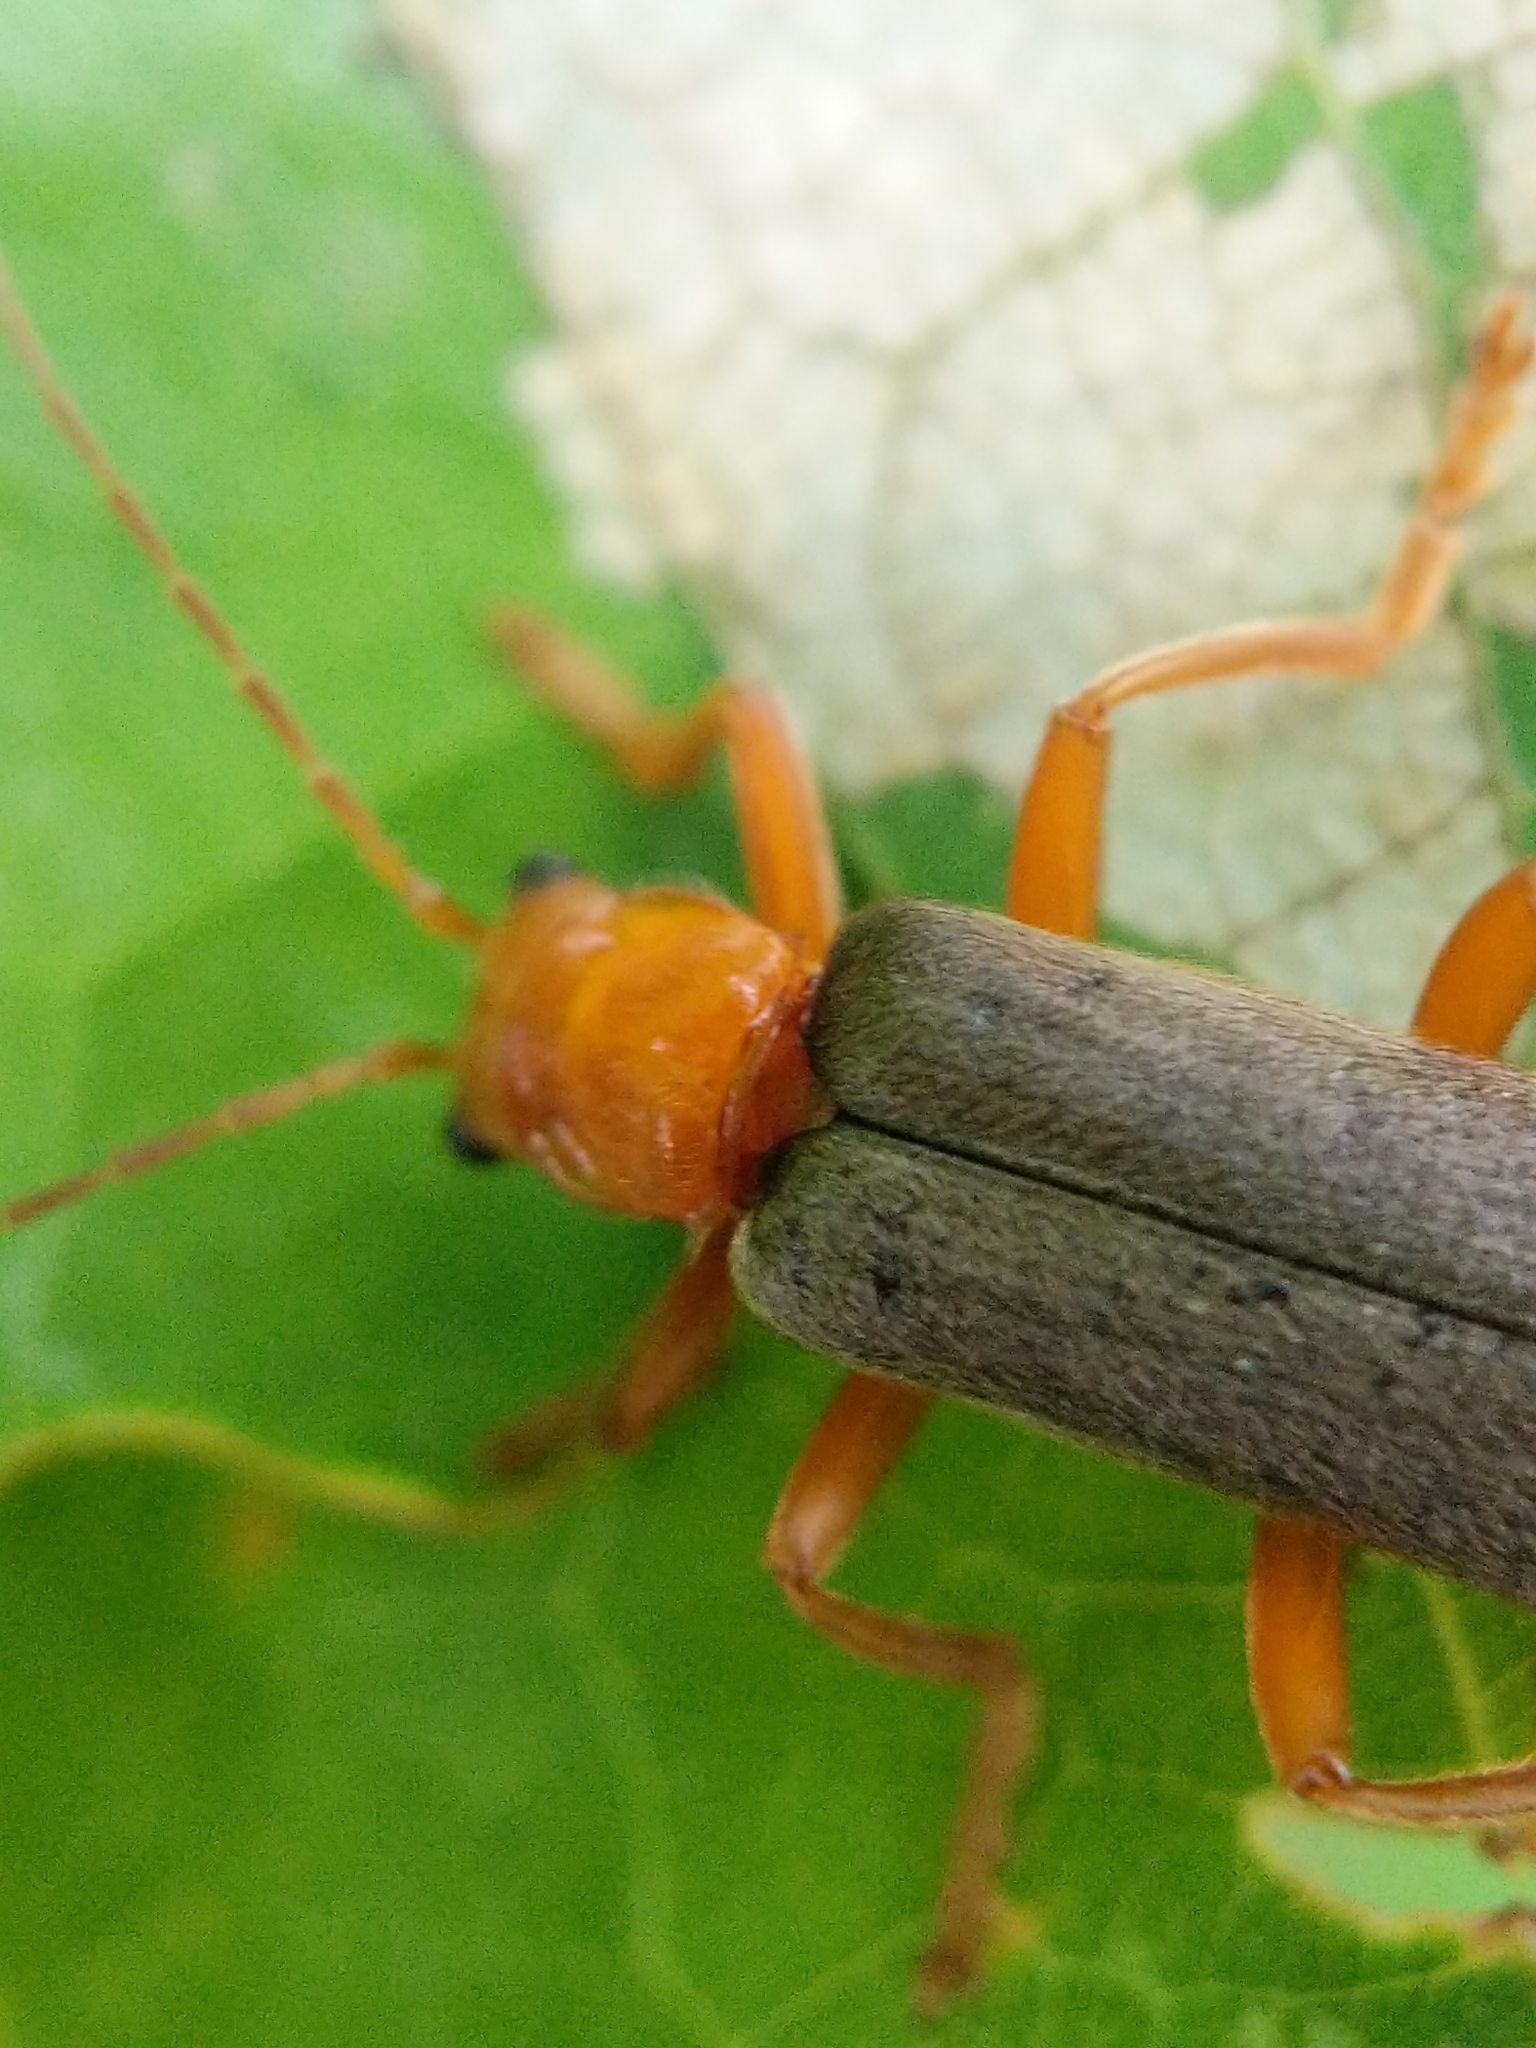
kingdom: Animalia
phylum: Arthropoda
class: Insecta
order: Coleoptera
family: Cantharidae
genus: Pacificanthia
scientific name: Pacificanthia rotundicollis
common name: Brown leatherwing beetle
